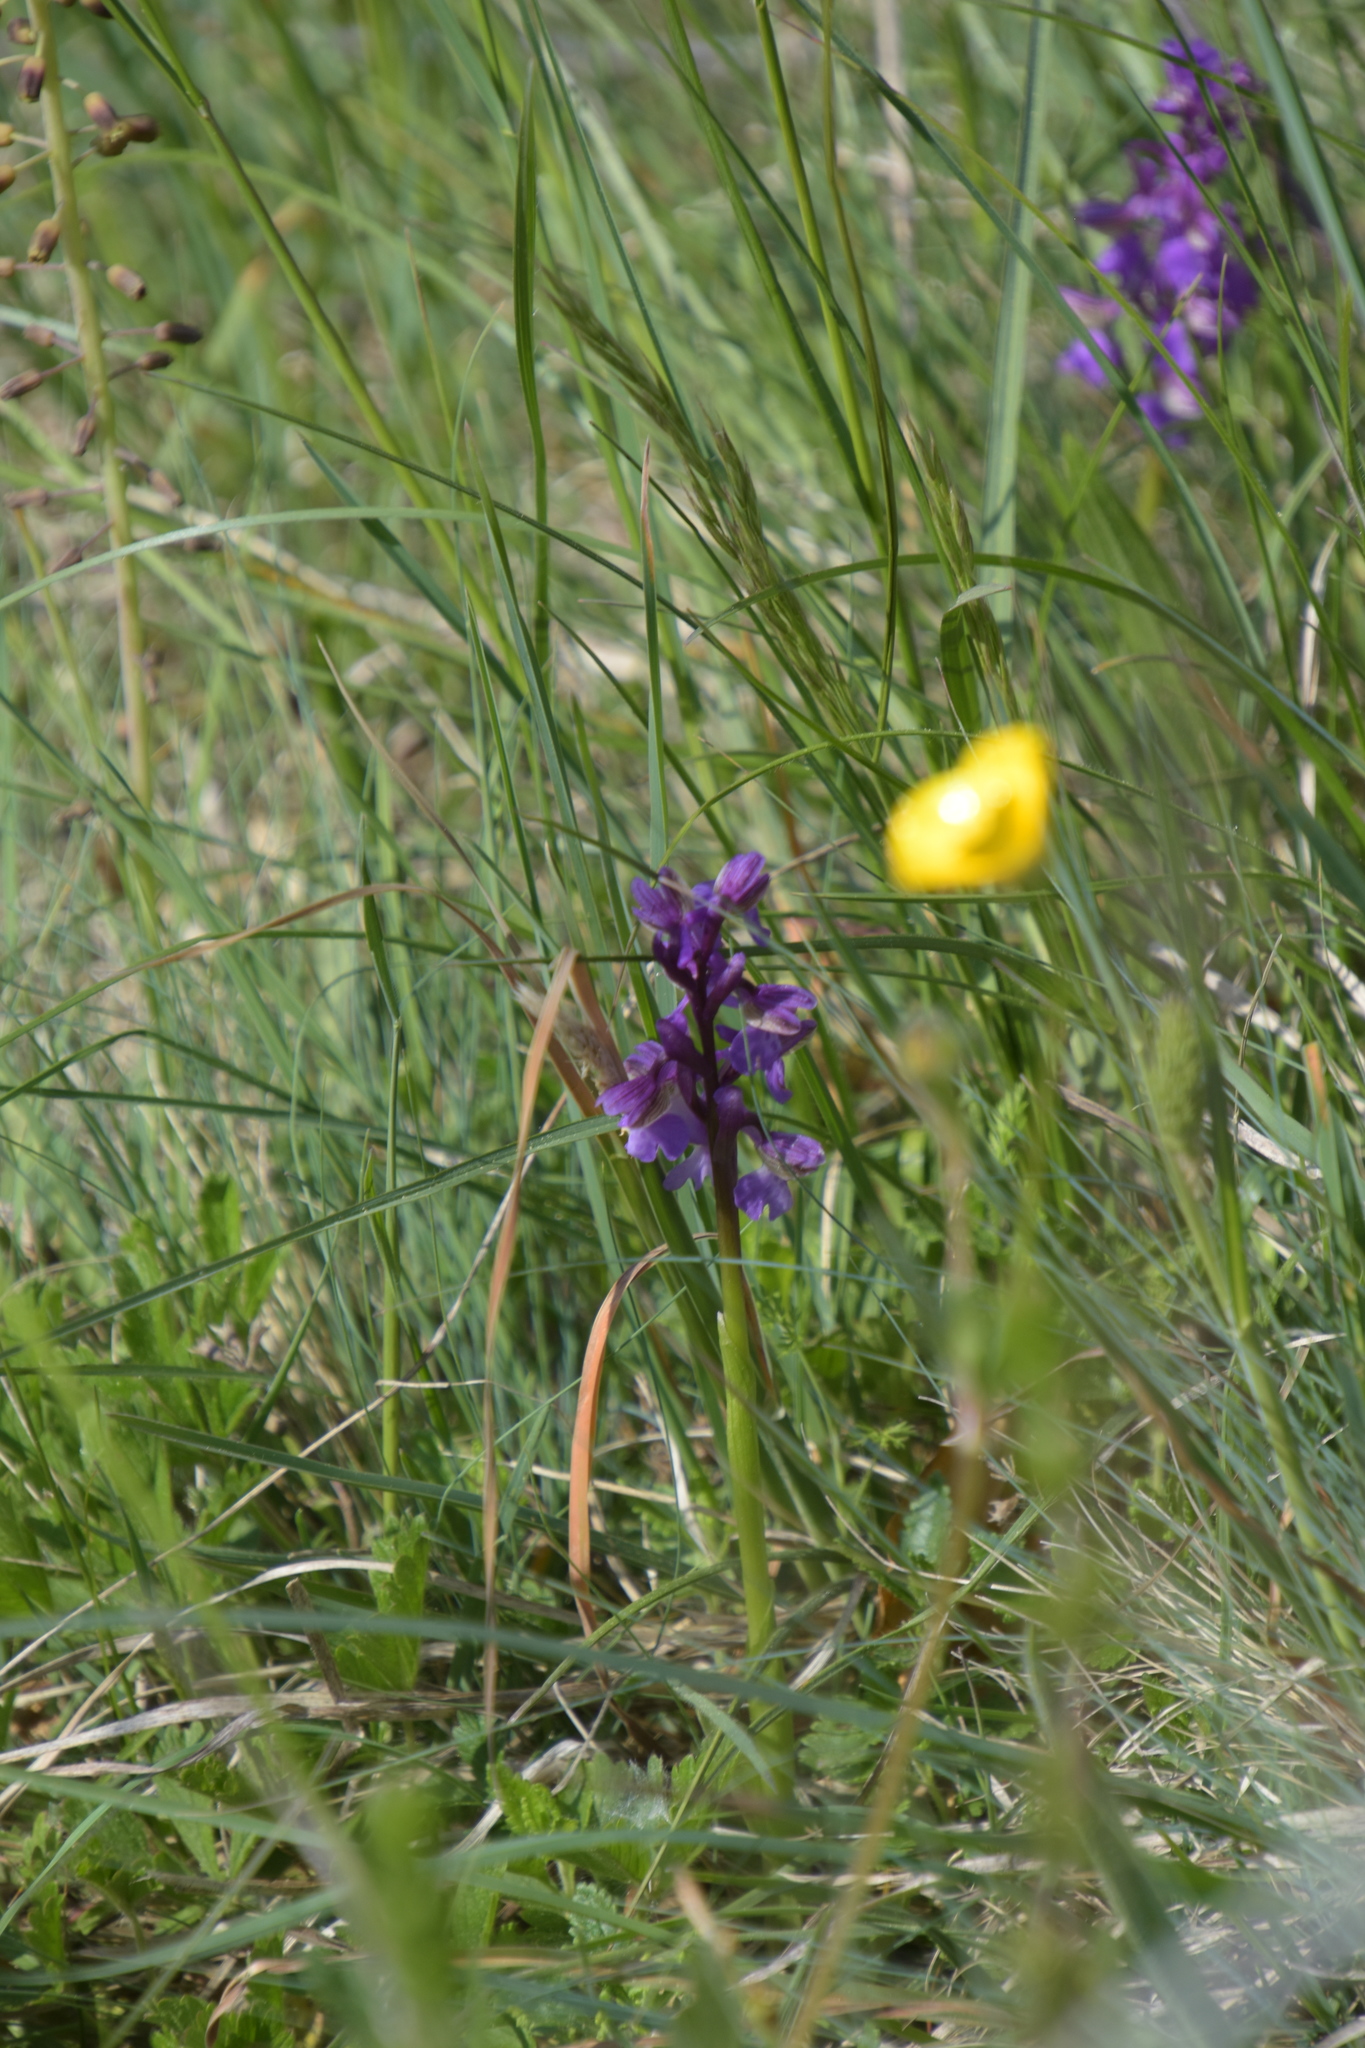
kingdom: Plantae
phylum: Tracheophyta
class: Liliopsida
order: Asparagales
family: Orchidaceae
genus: Anacamptis
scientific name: Anacamptis morio
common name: Green-winged orchid
